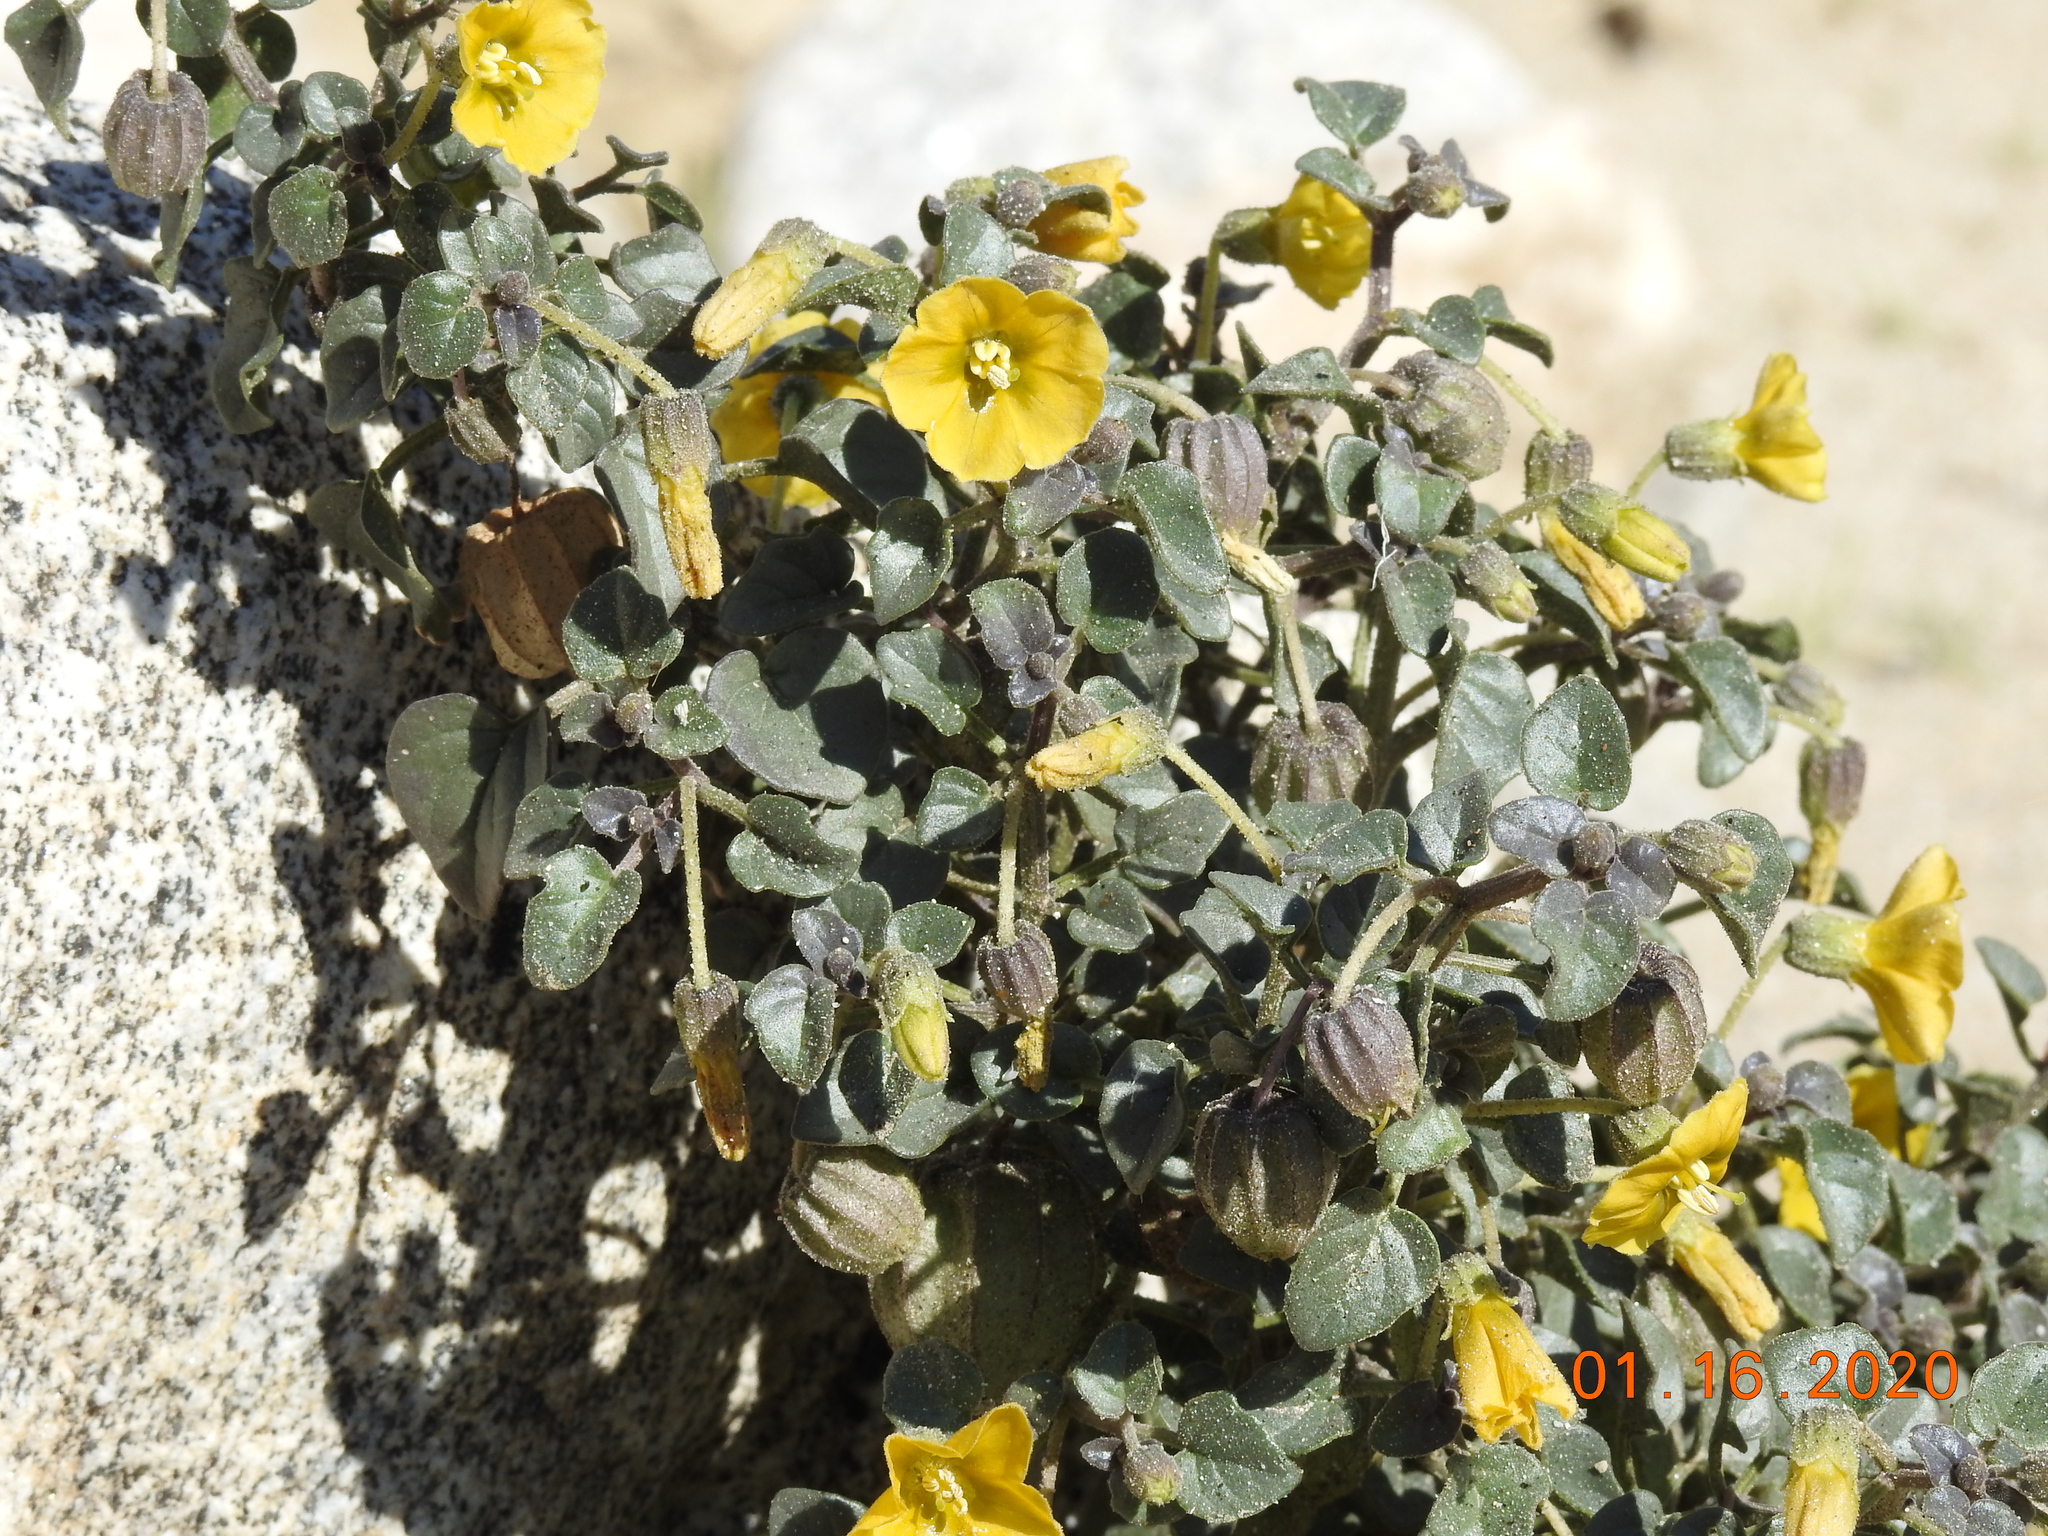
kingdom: Plantae
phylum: Tracheophyta
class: Magnoliopsida
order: Solanales
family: Solanaceae
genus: Physalis
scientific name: Physalis crassifolia
